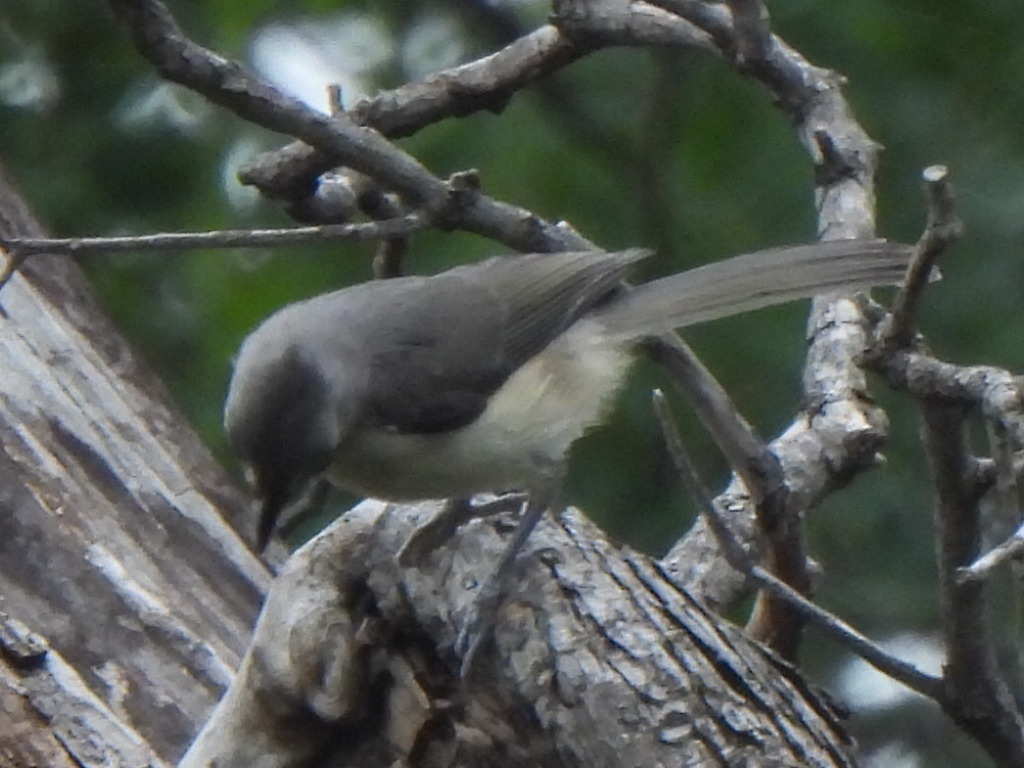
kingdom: Animalia
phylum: Chordata
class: Aves
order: Passeriformes
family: Paridae
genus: Baeolophus
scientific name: Baeolophus bicolor
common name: Tufted titmouse
